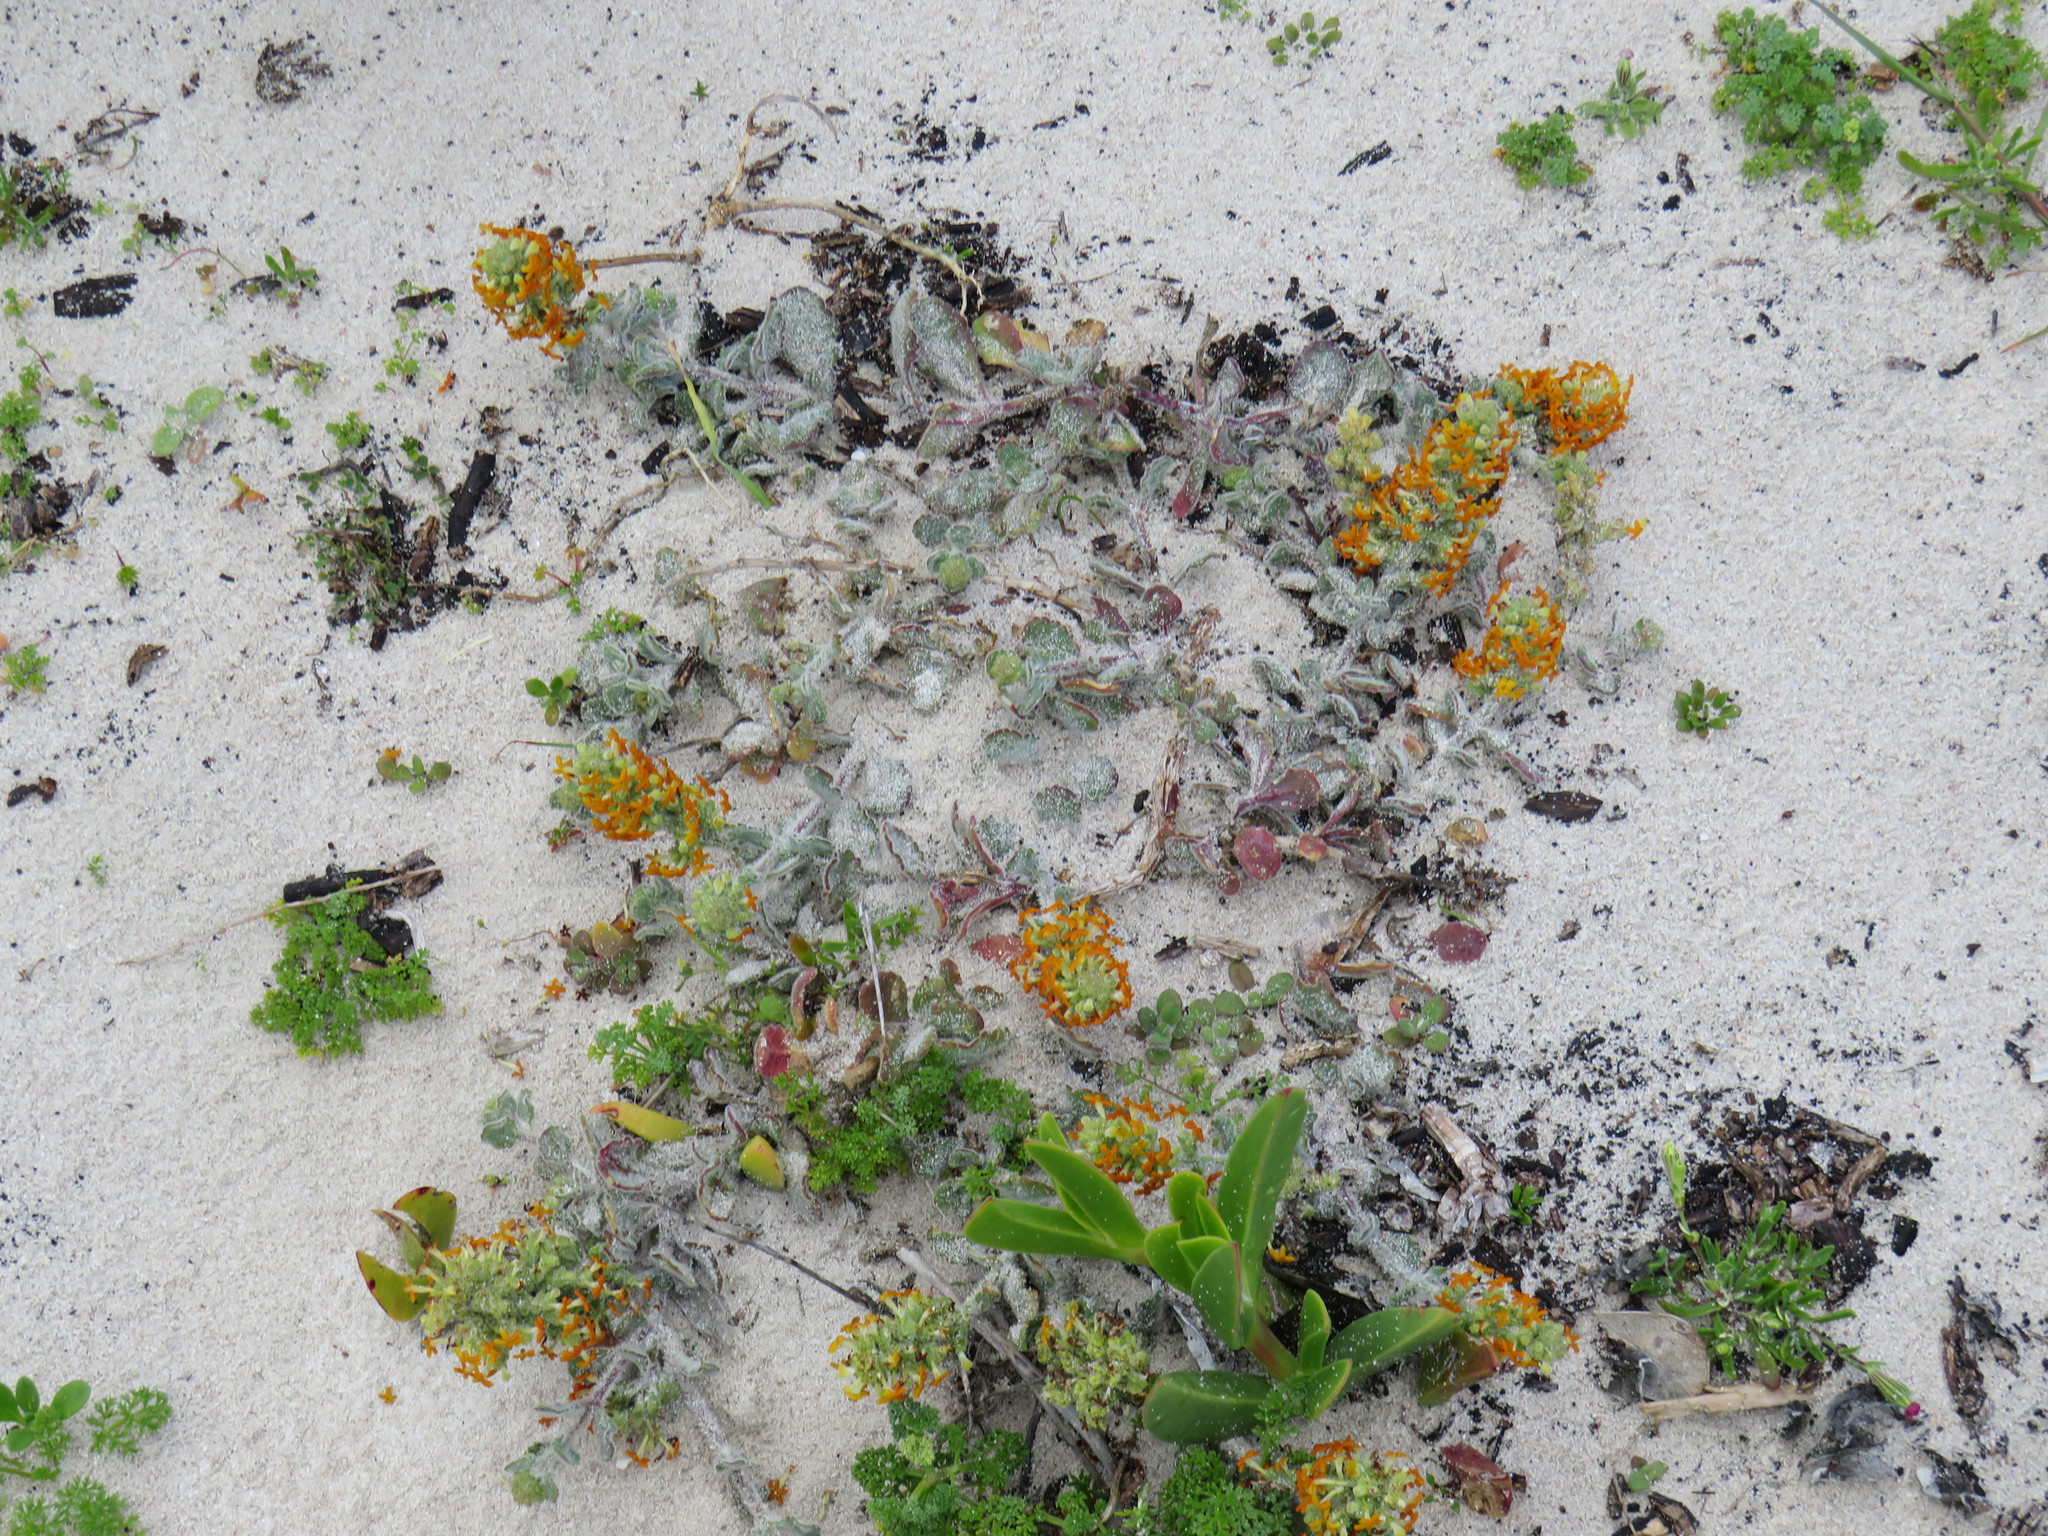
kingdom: Plantae
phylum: Tracheophyta
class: Magnoliopsida
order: Lamiales
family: Scrophulariaceae
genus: Manulea
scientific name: Manulea tomentosa
